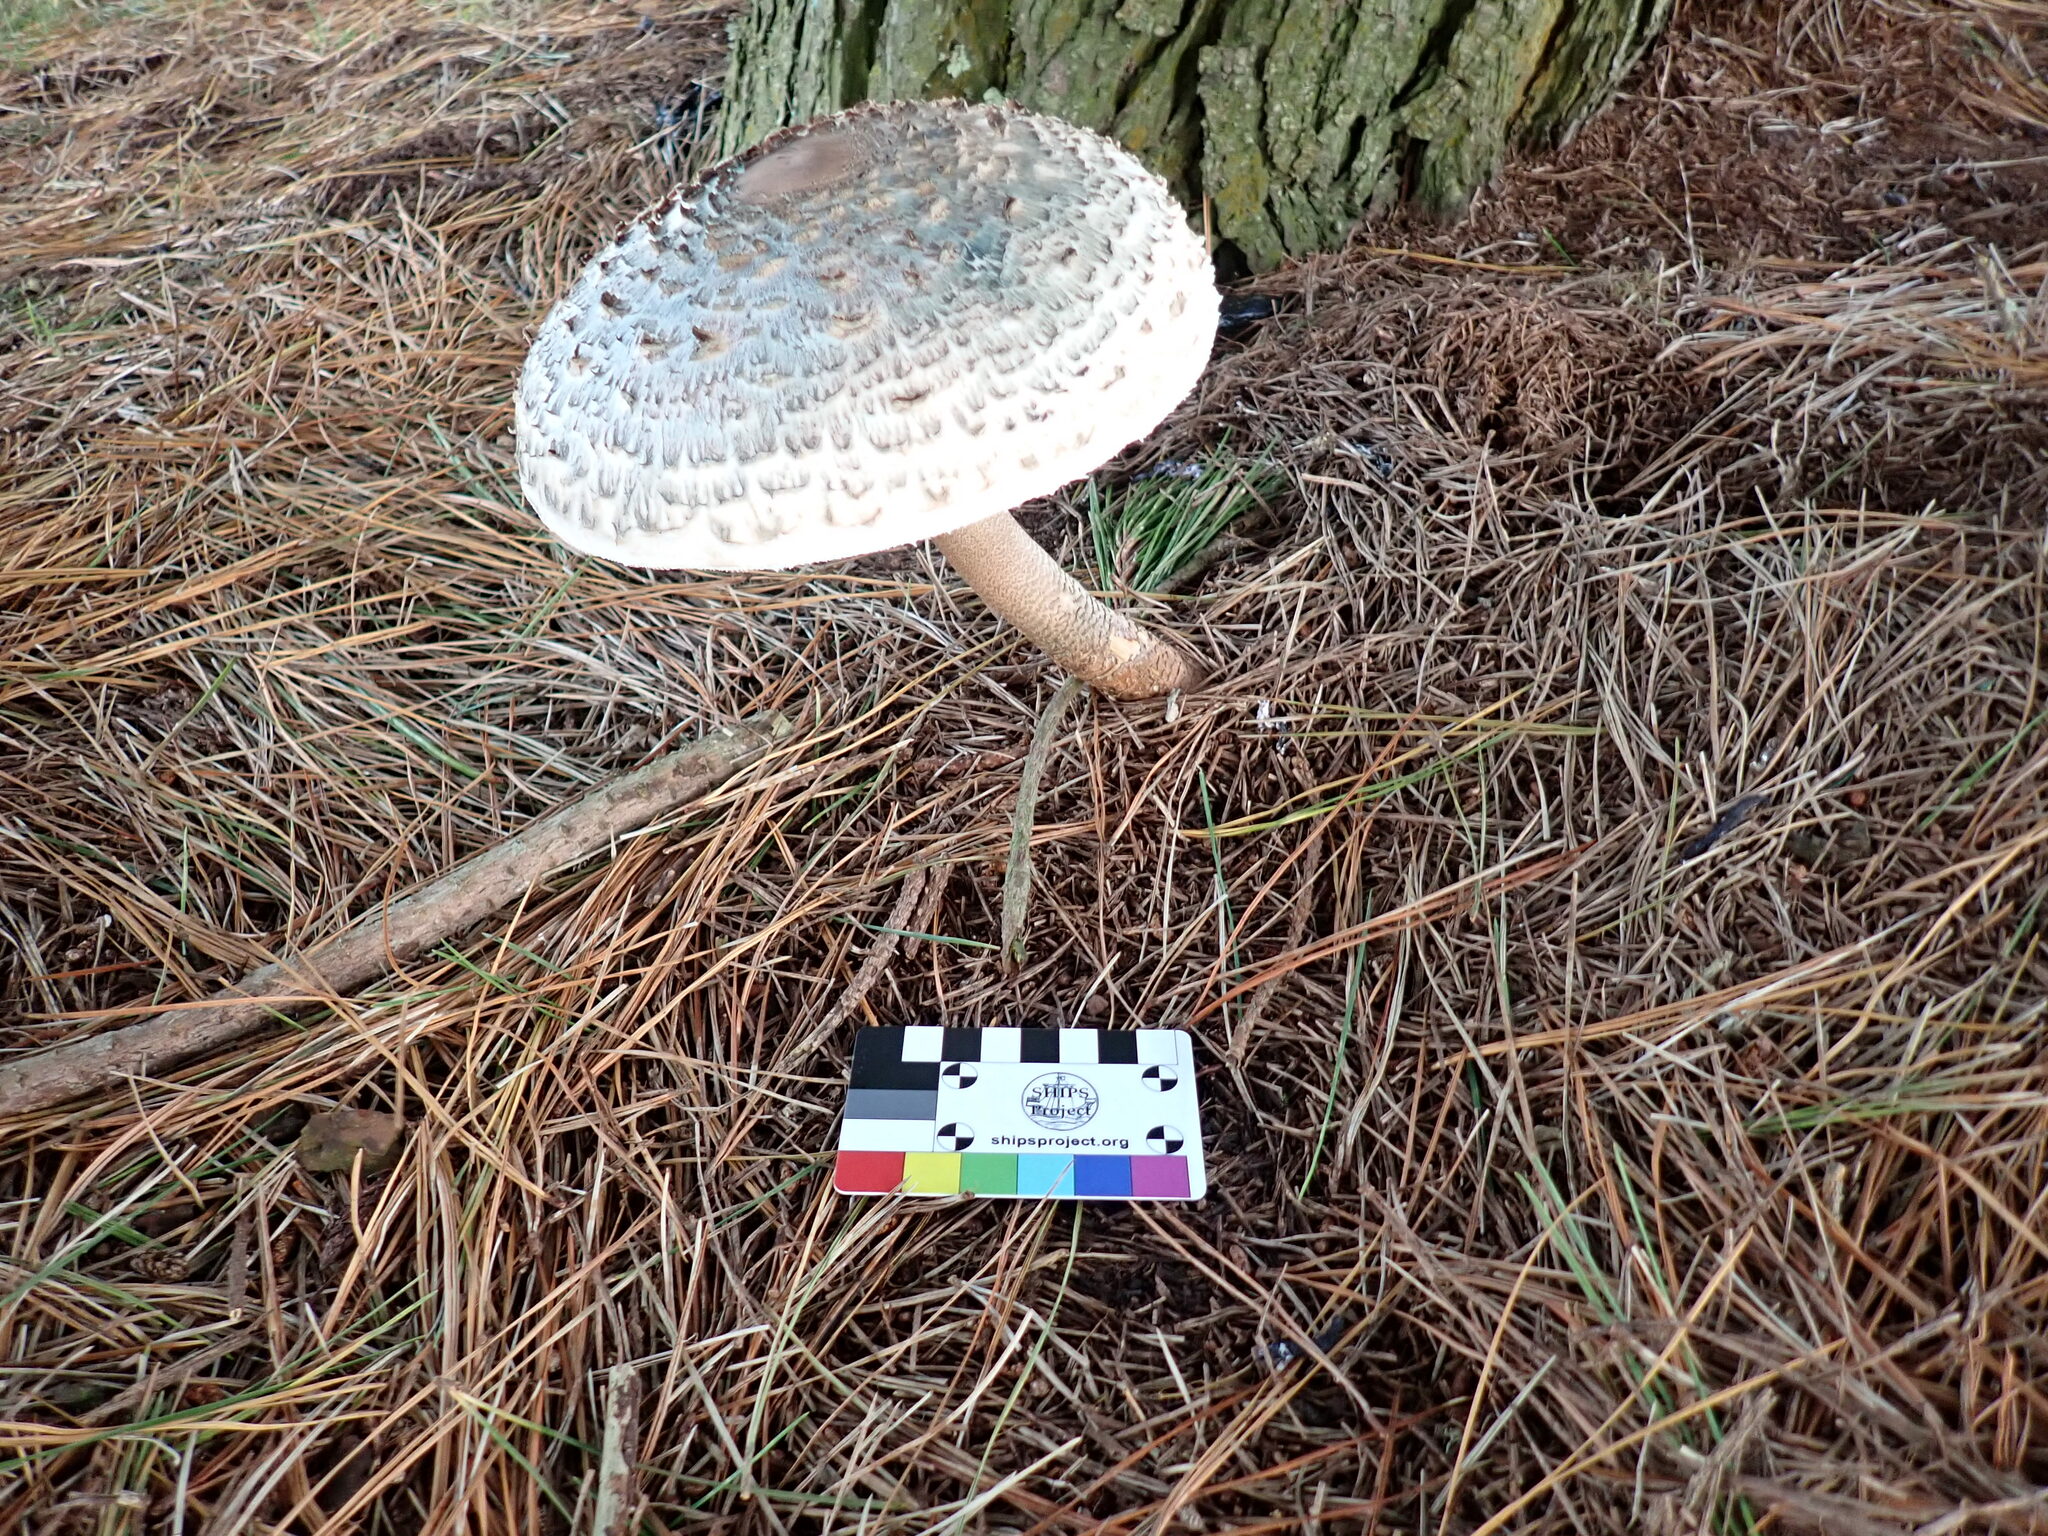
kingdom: Fungi
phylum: Basidiomycota
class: Agaricomycetes
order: Agaricales
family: Agaricaceae
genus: Macrolepiota
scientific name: Macrolepiota procera
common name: Parasol
